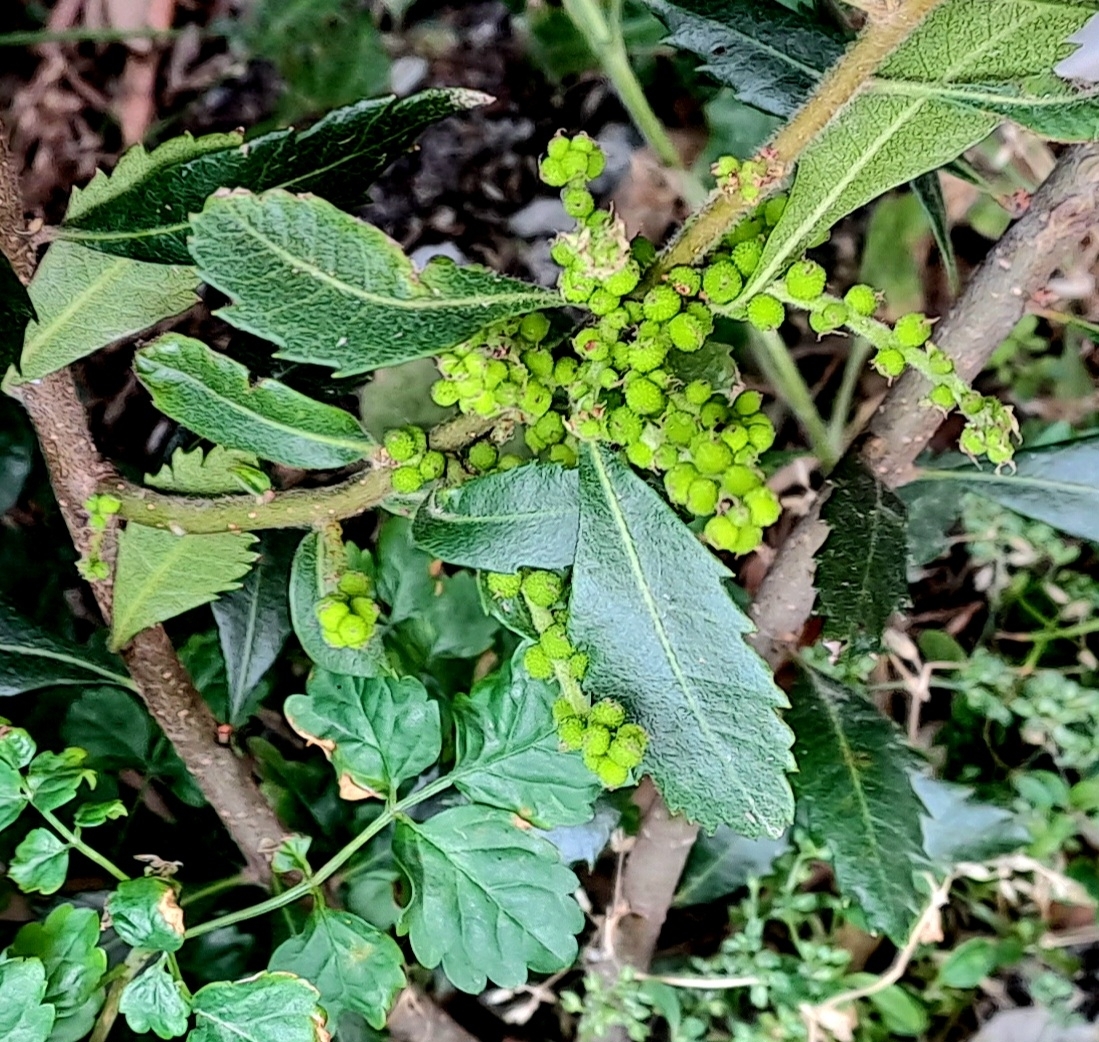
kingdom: Plantae
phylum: Tracheophyta
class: Magnoliopsida
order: Fagales
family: Myricaceae
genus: Morella
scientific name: Morella serrata
